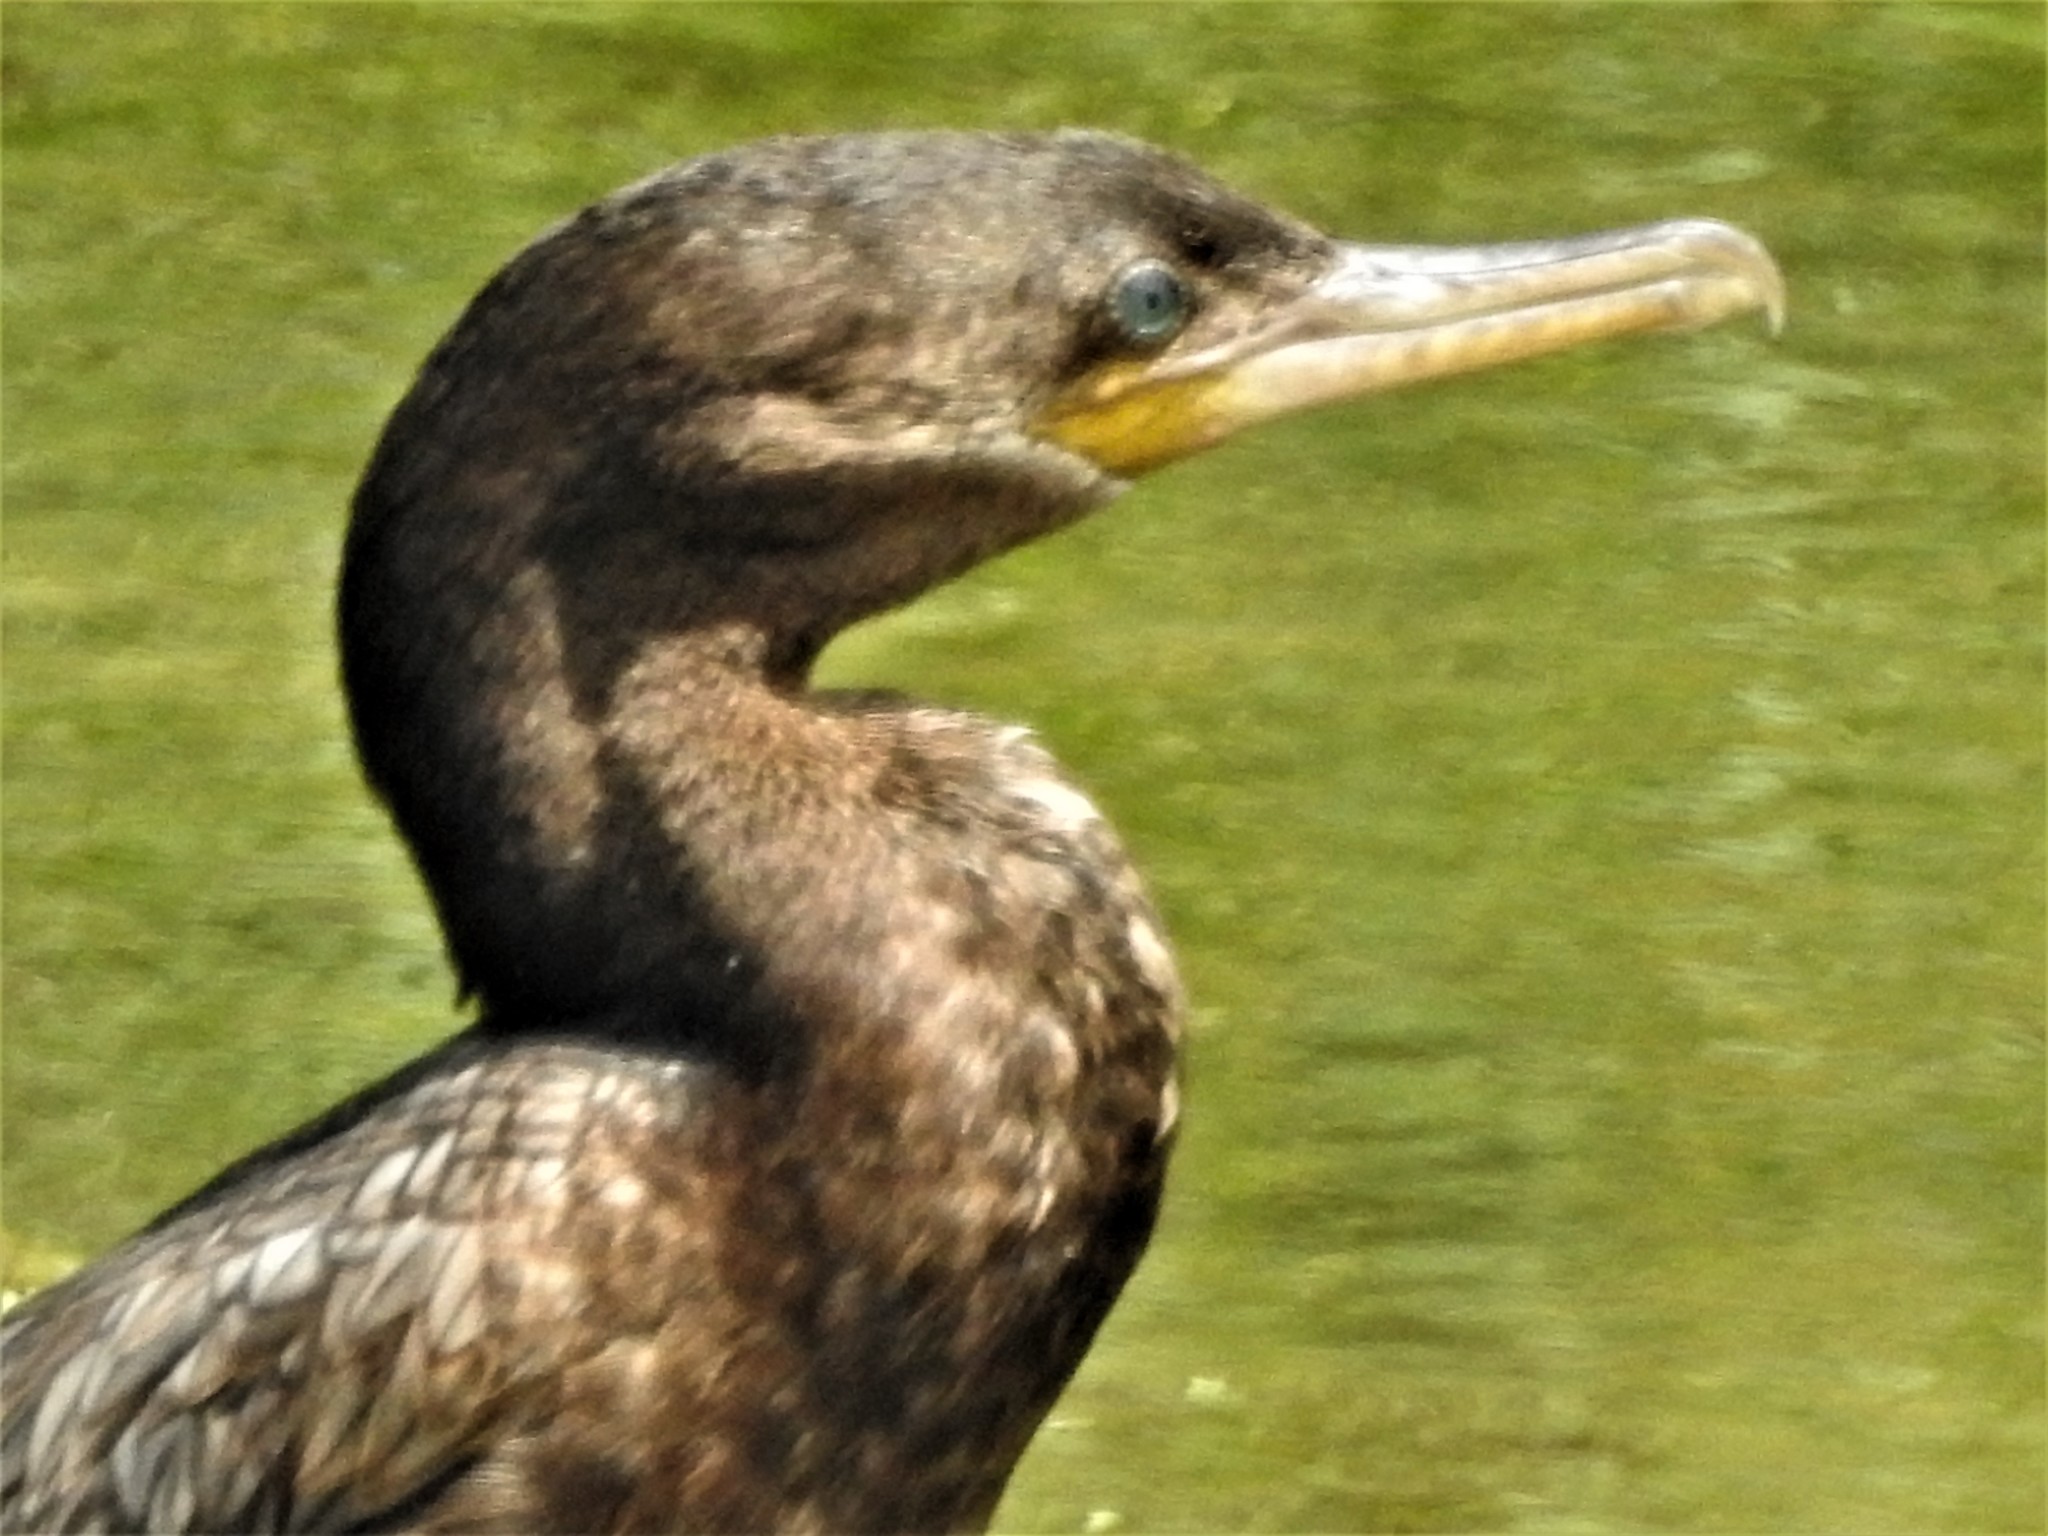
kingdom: Animalia
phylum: Chordata
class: Aves
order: Suliformes
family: Phalacrocoracidae
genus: Phalacrocorax
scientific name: Phalacrocorax brasilianus
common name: Neotropic cormorant
